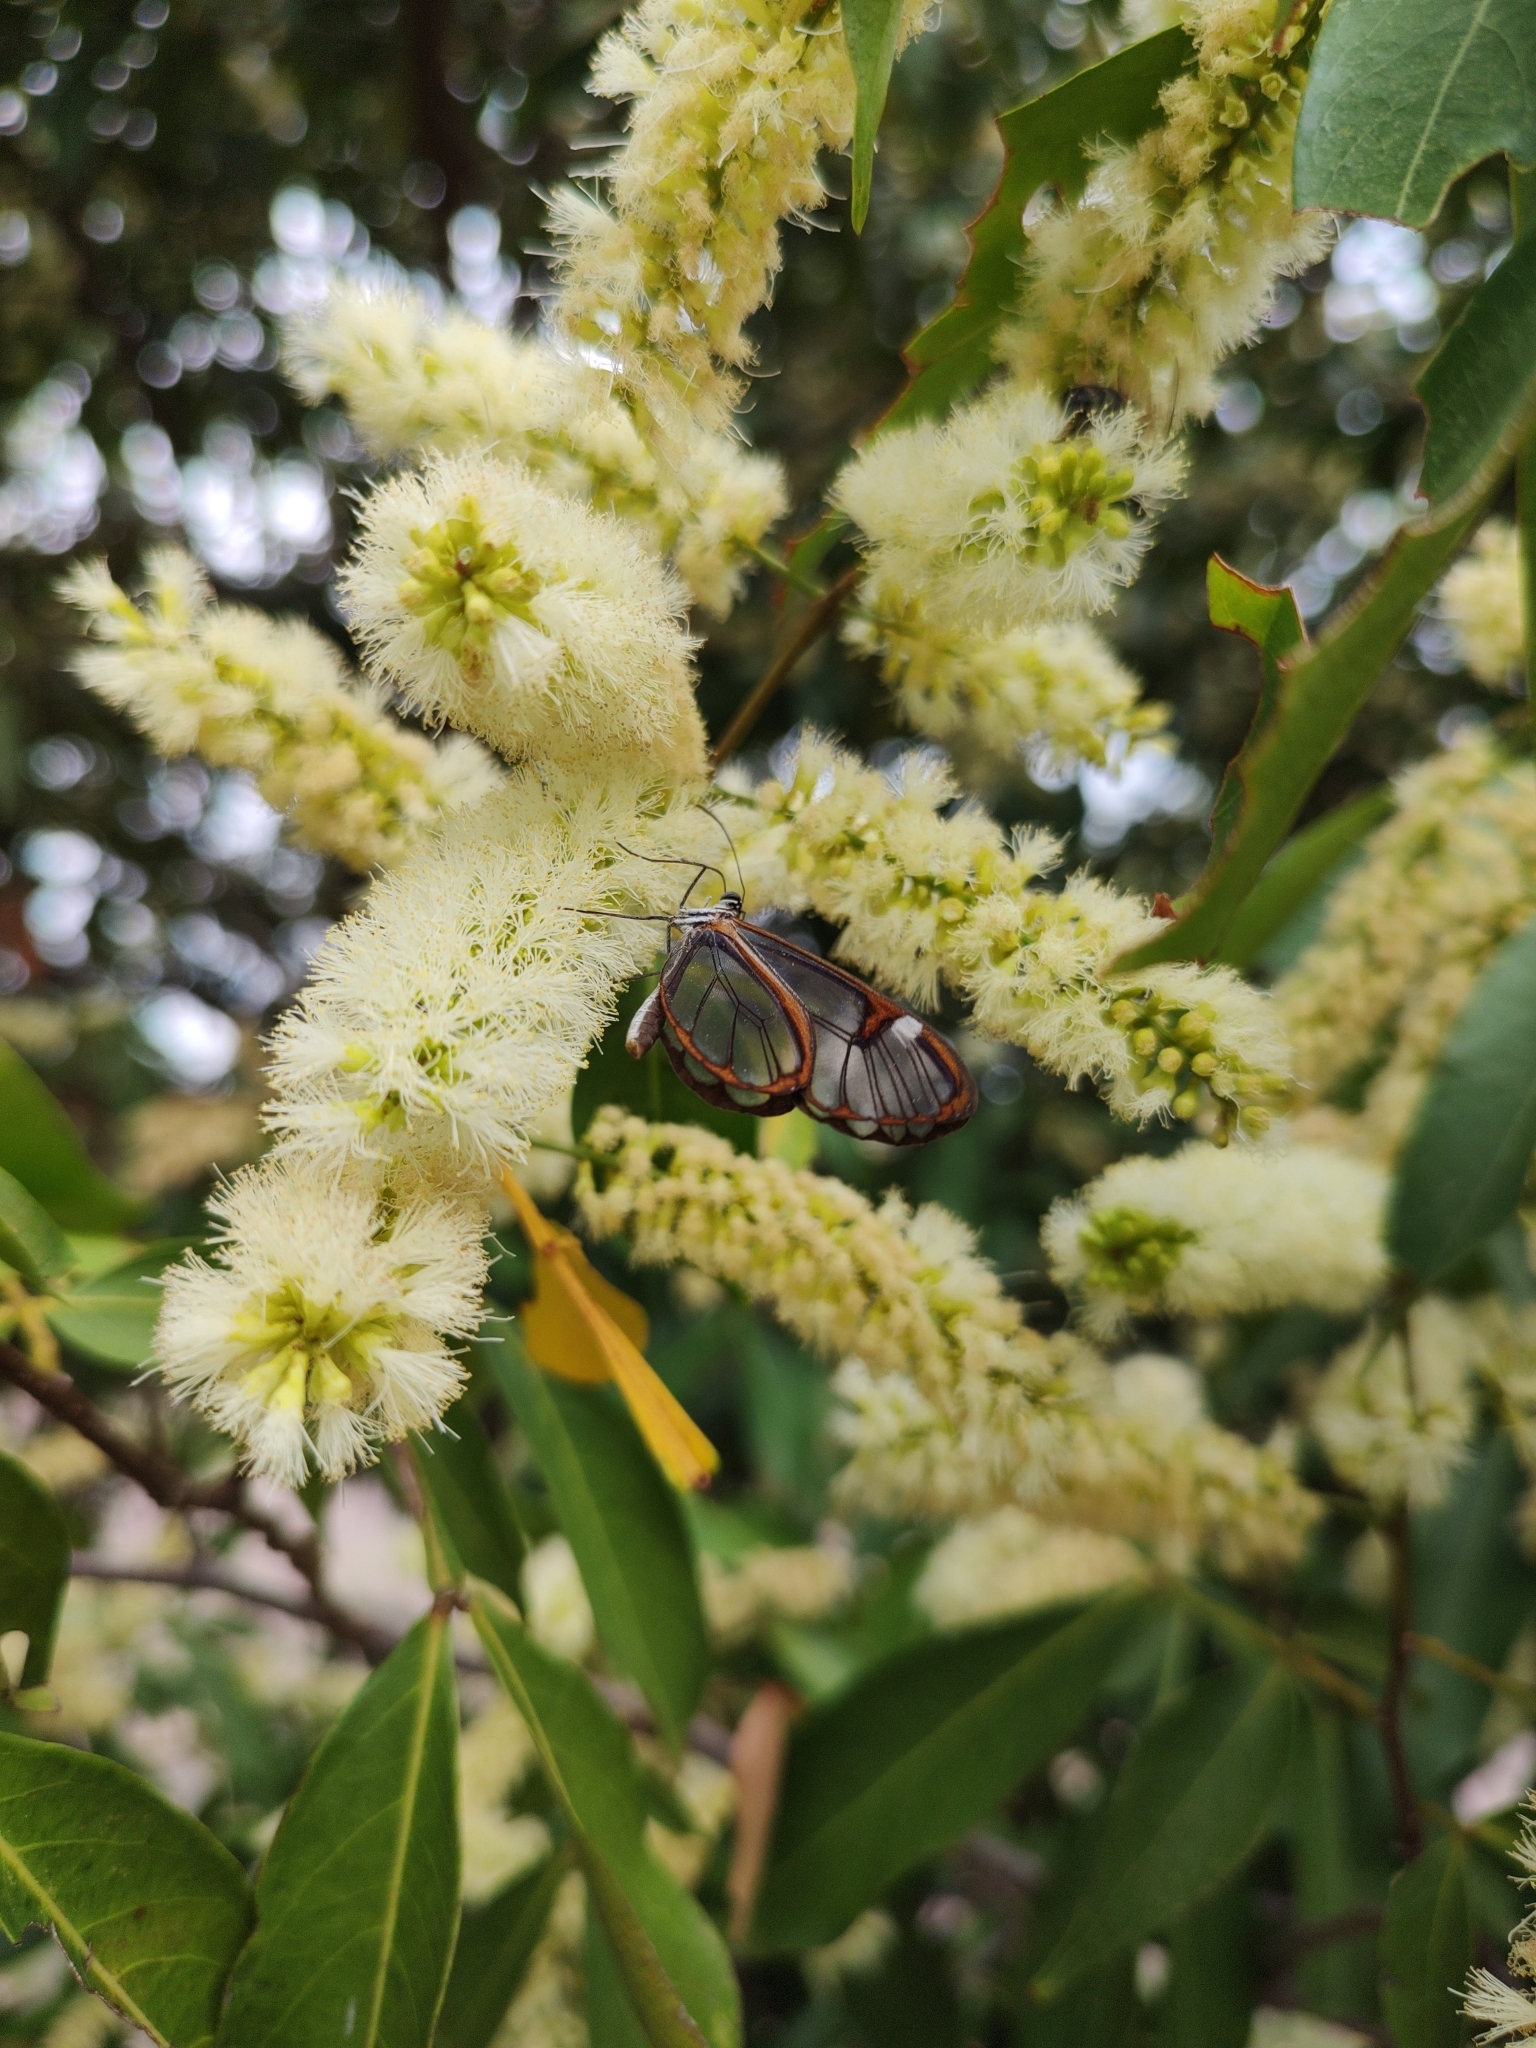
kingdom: Animalia
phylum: Arthropoda
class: Insecta
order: Lepidoptera
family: Nymphalidae
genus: Pseudoscada
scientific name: Pseudoscada erruca
